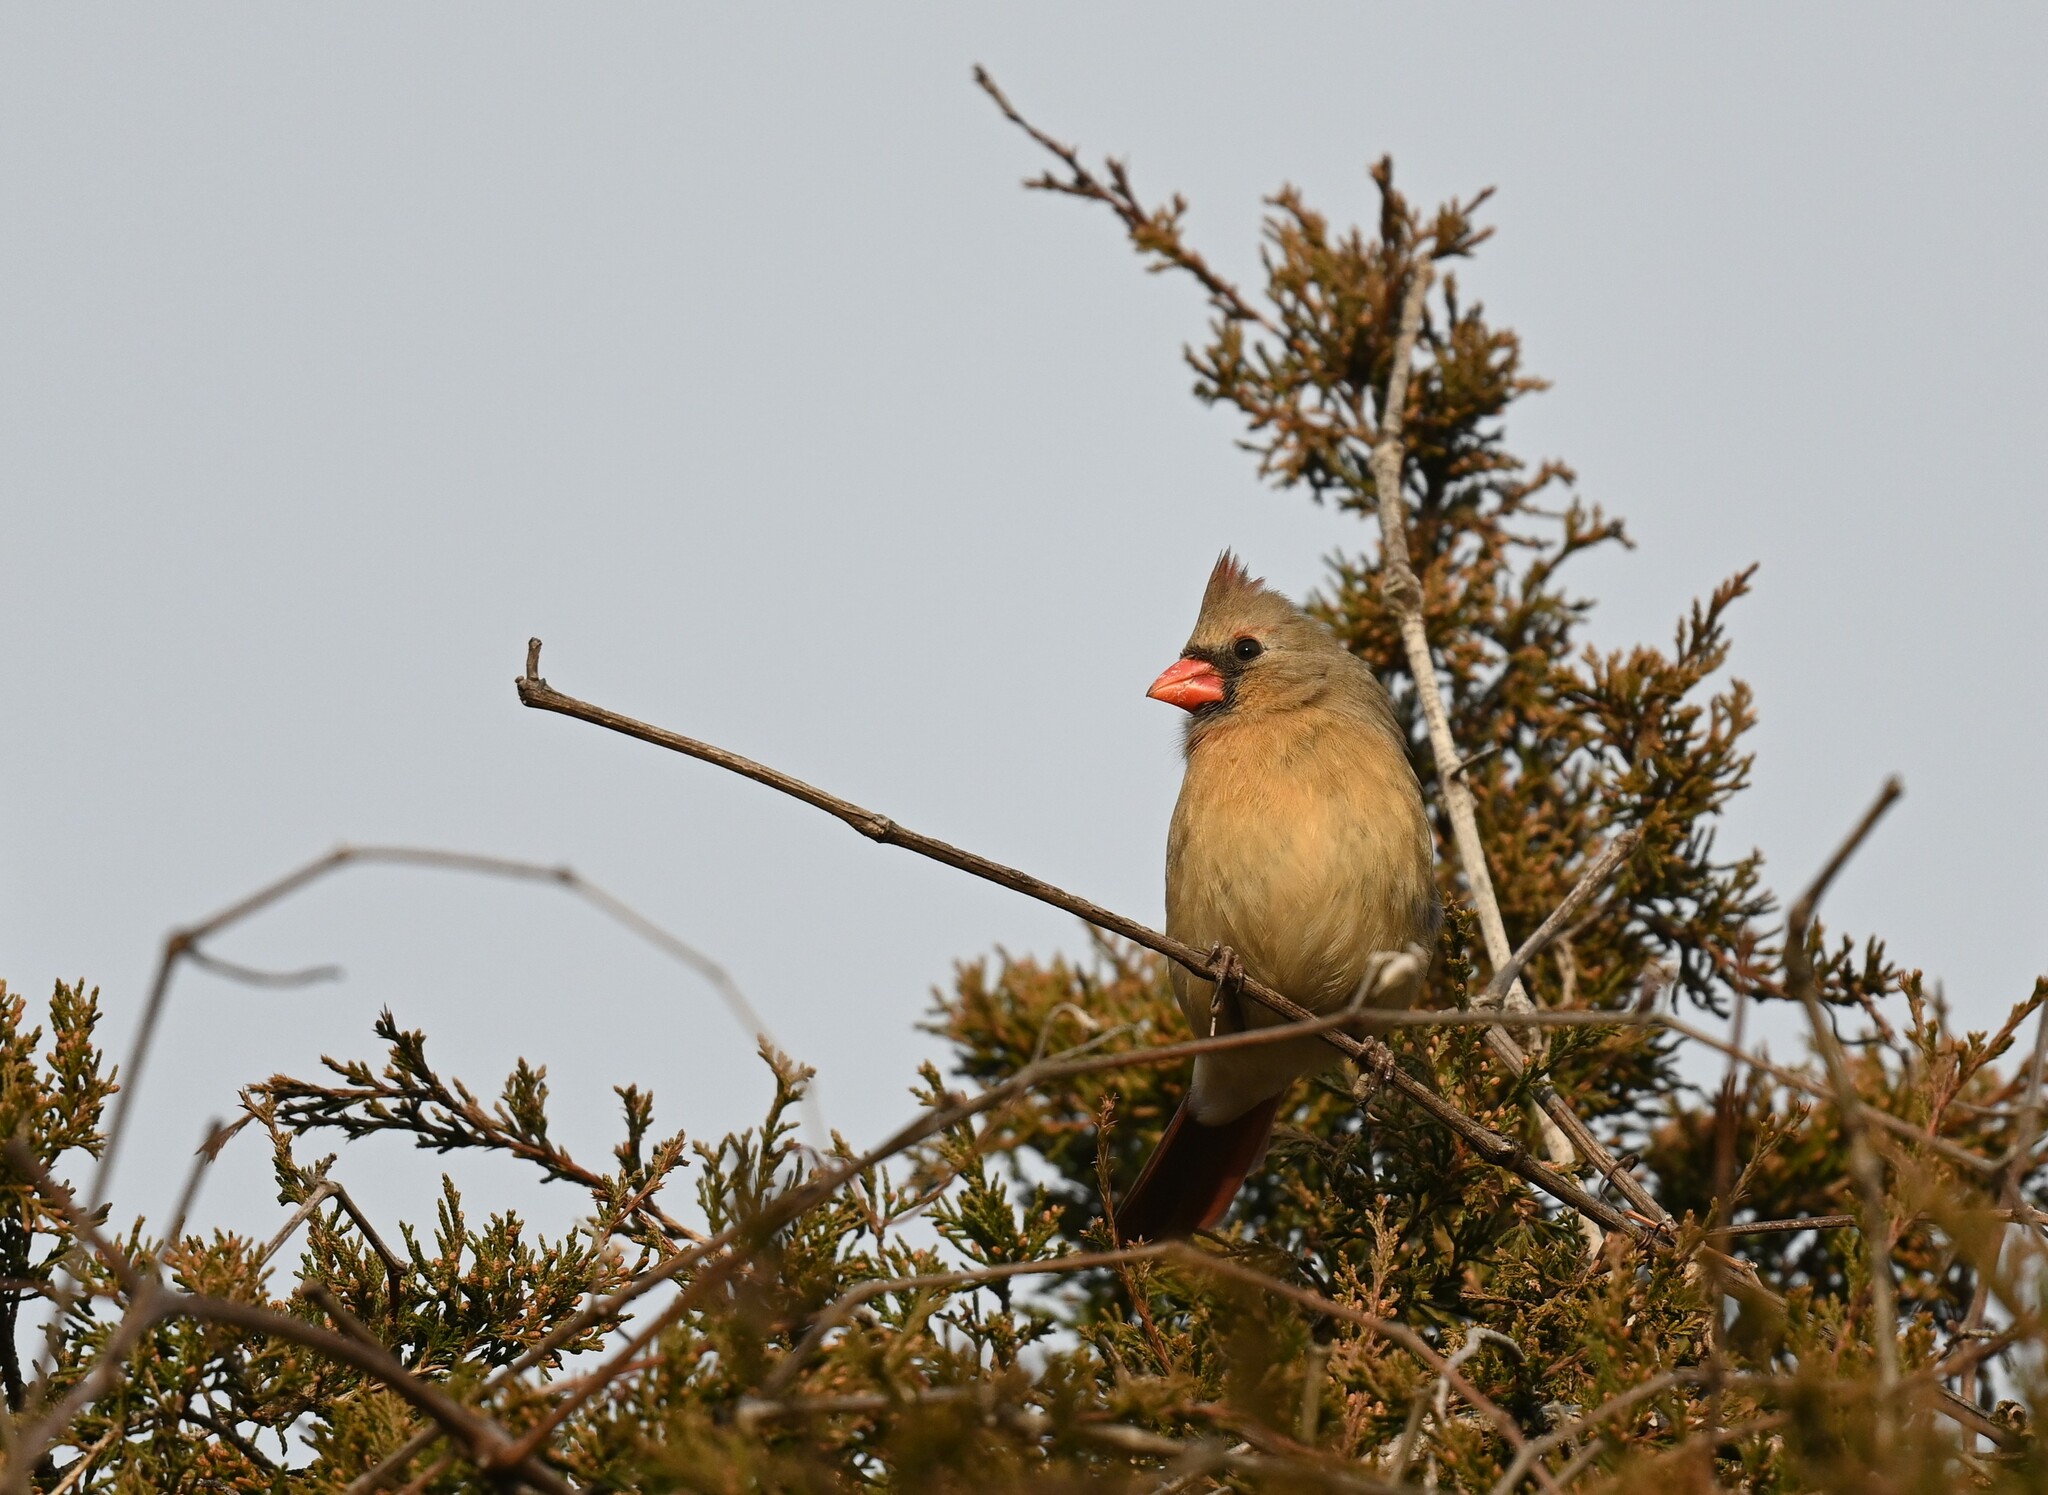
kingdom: Animalia
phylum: Chordata
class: Aves
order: Passeriformes
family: Cardinalidae
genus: Cardinalis
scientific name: Cardinalis cardinalis
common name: Northern cardinal
